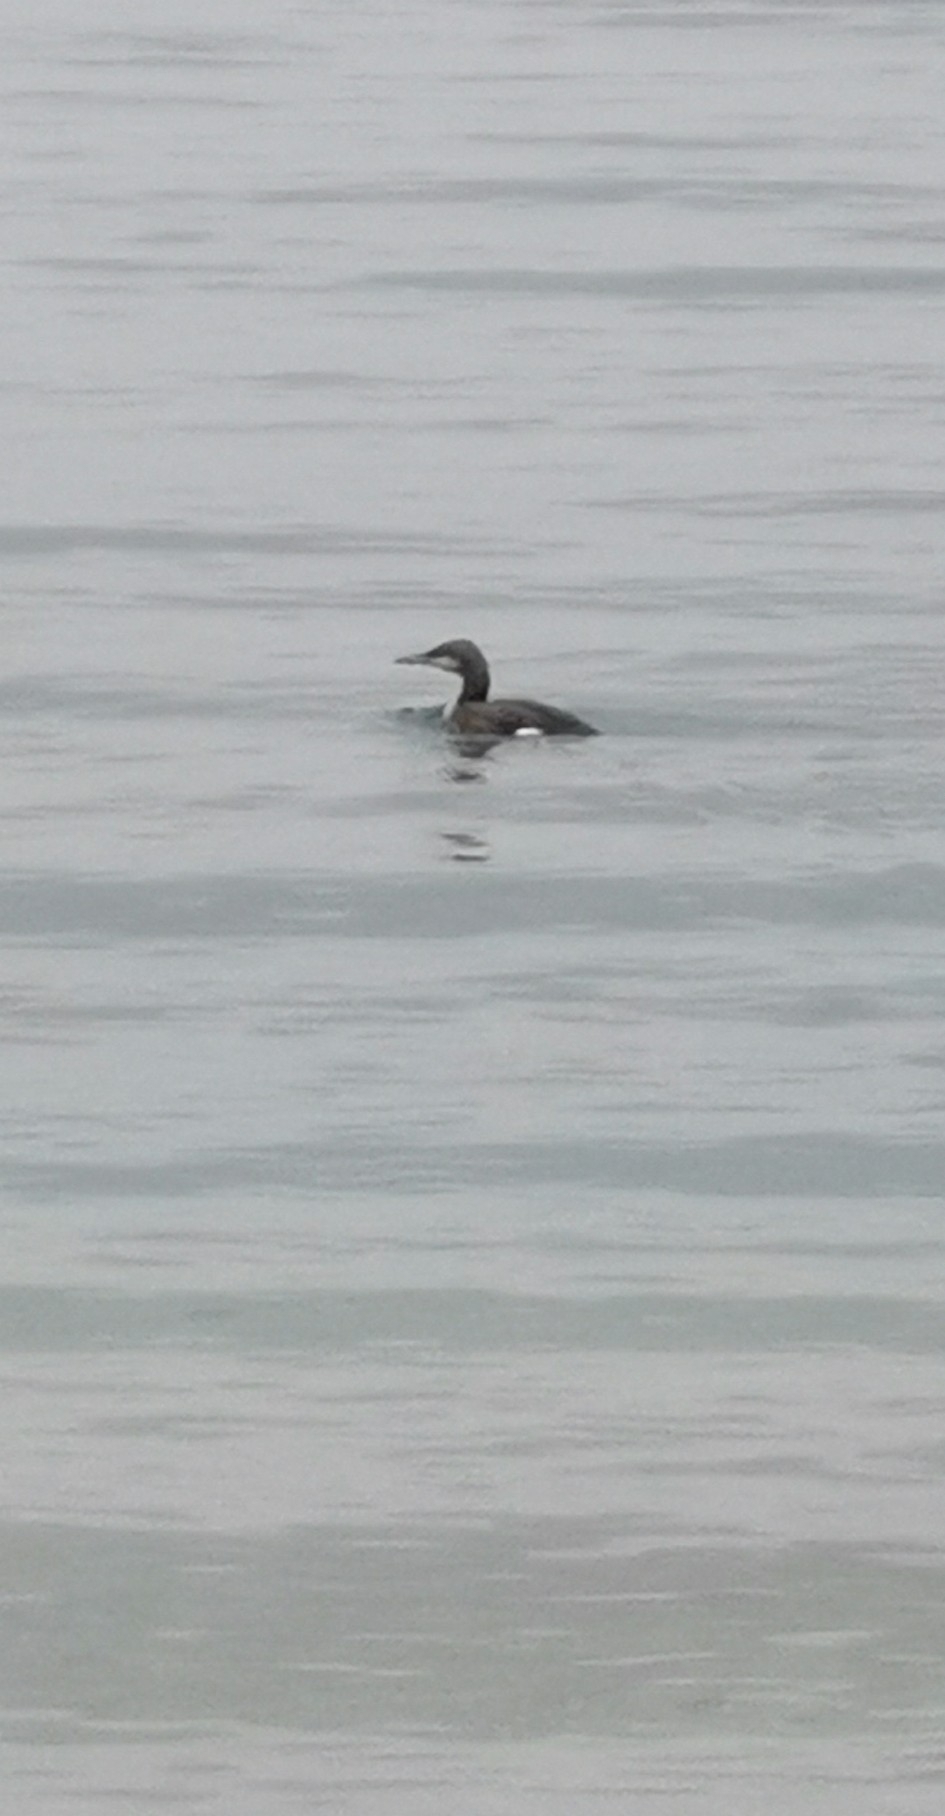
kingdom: Animalia
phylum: Chordata
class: Aves
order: Gaviiformes
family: Gaviidae
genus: Gavia
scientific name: Gavia arctica
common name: Black-throated loon
